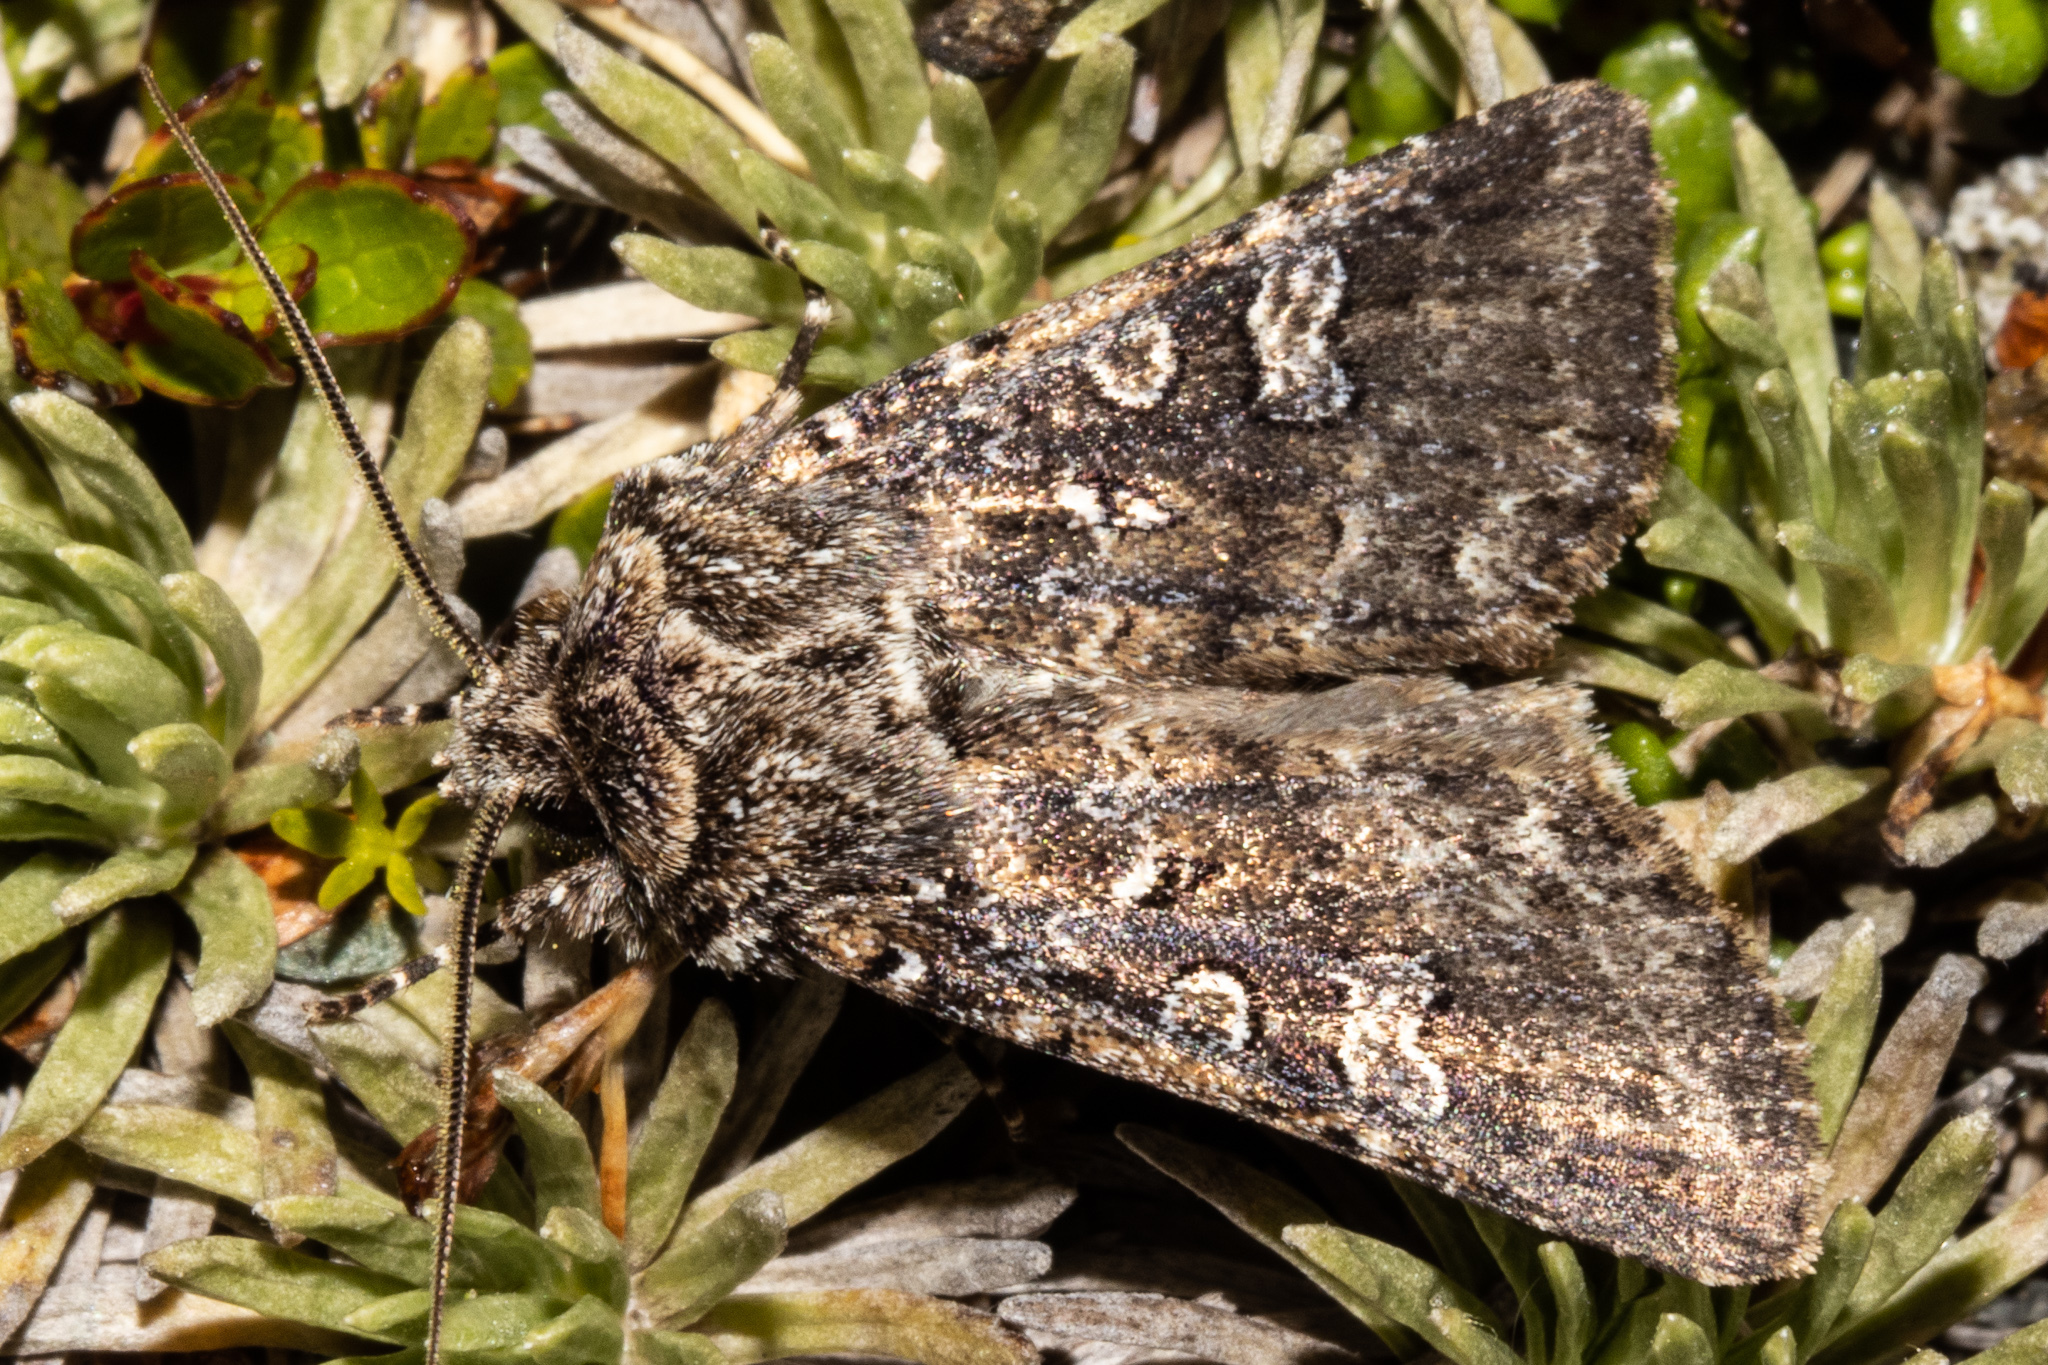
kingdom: Animalia
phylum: Arthropoda
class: Insecta
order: Lepidoptera
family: Noctuidae
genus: Ichneutica
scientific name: Ichneutica lithias
